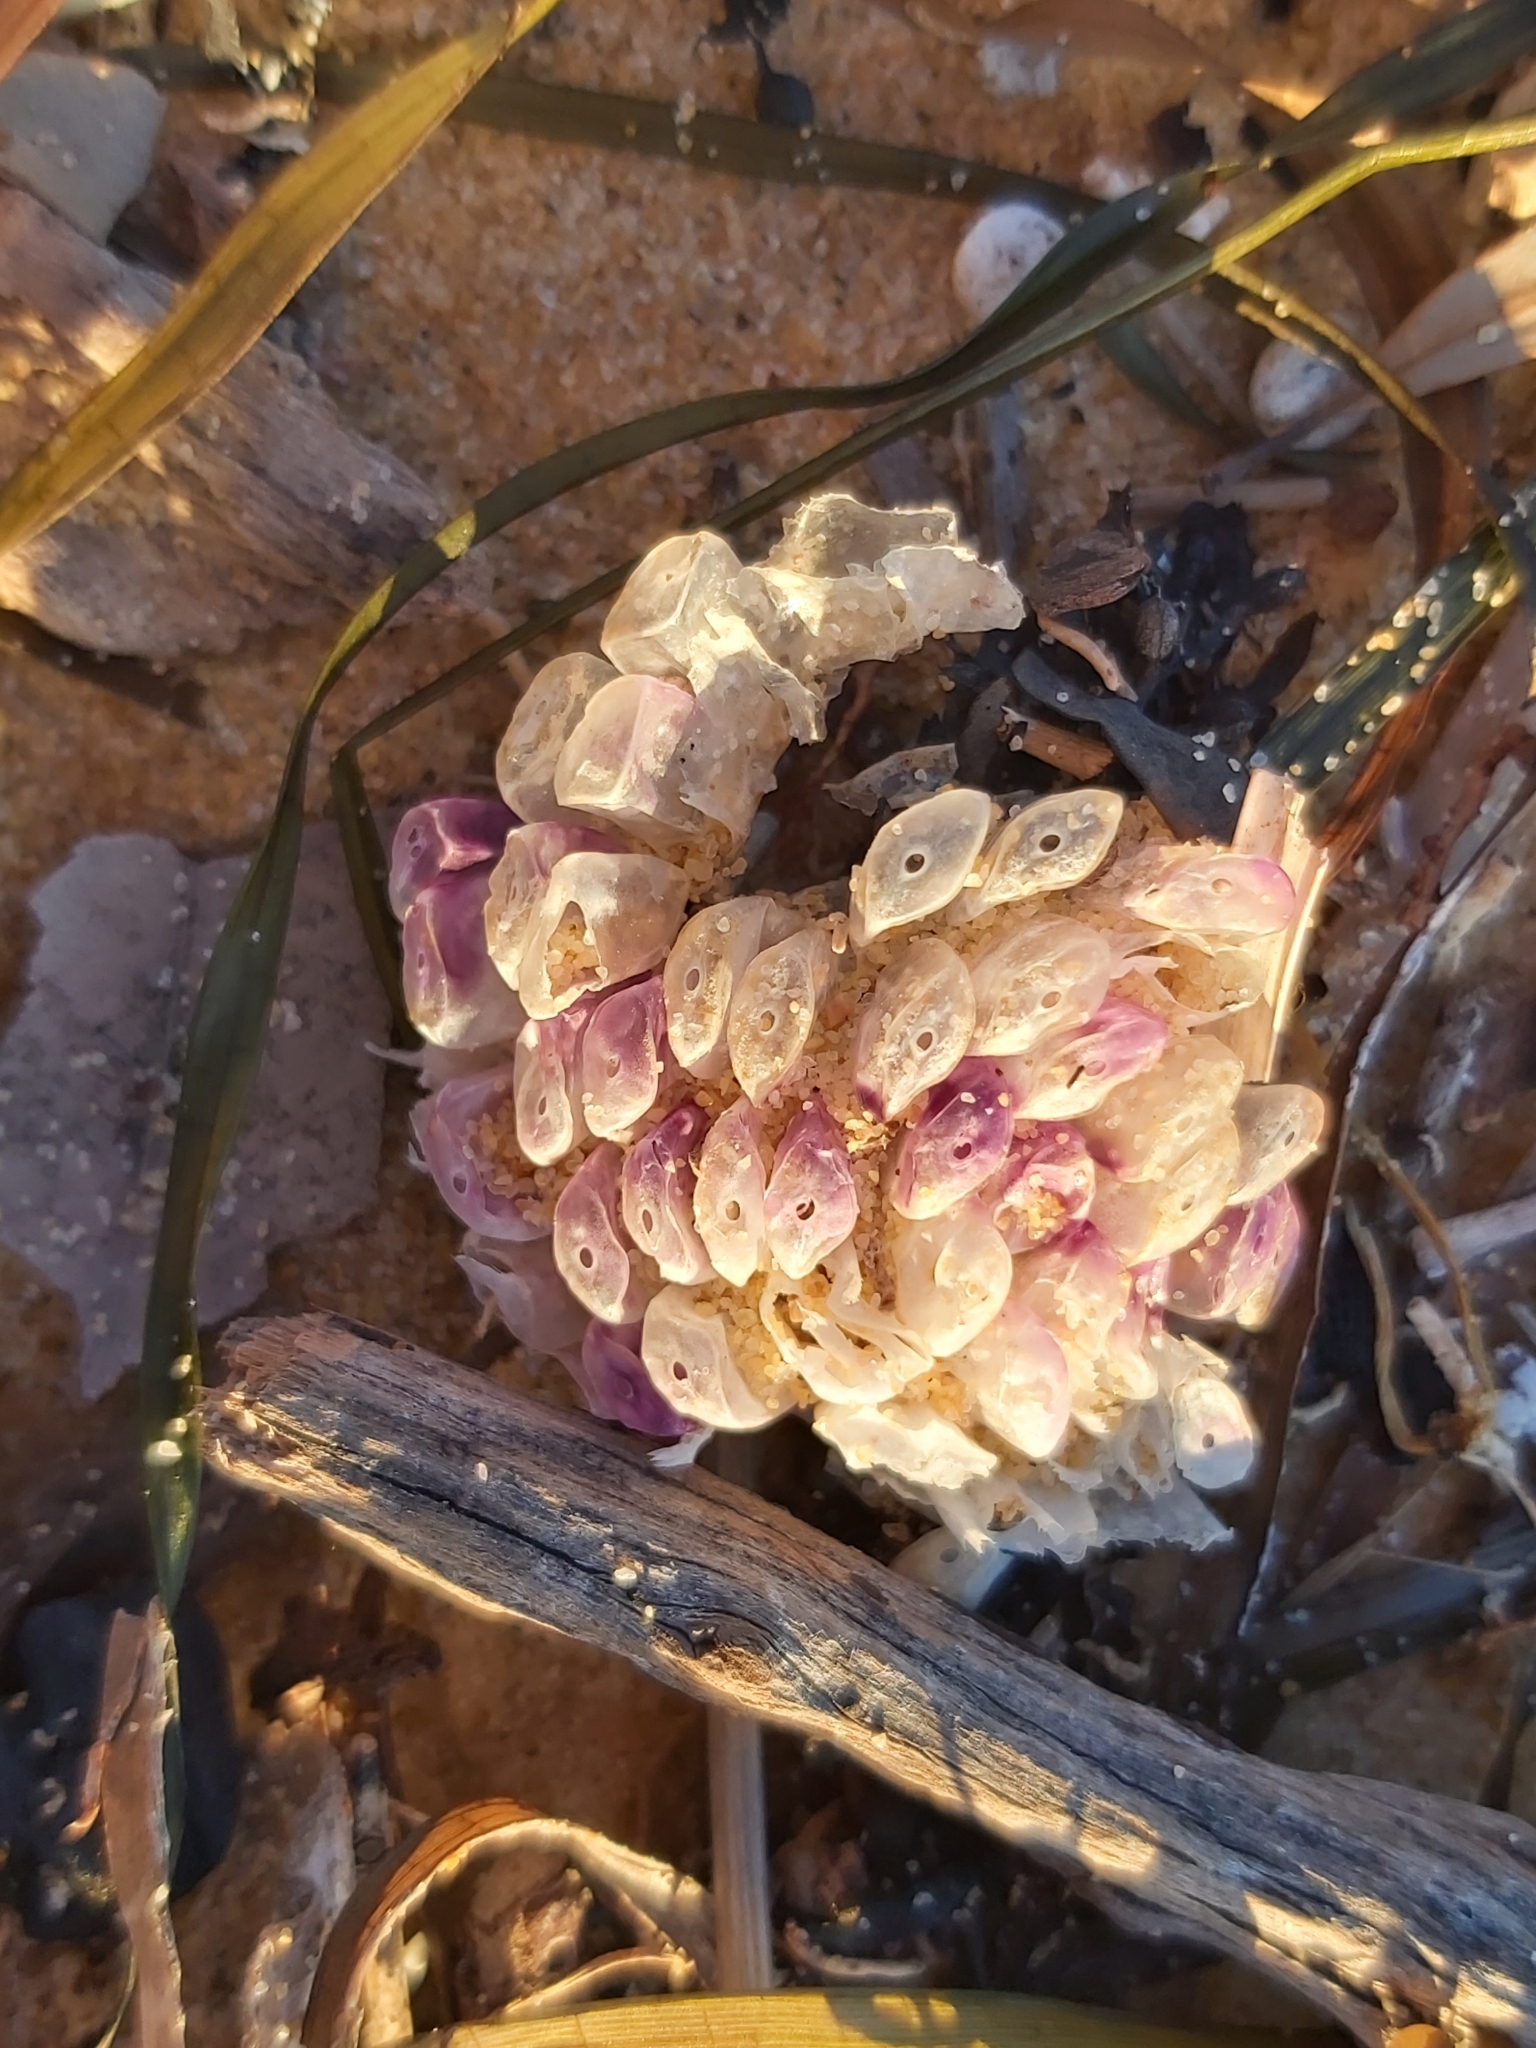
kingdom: Animalia
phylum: Mollusca
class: Gastropoda
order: Neogastropoda
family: Muricidae
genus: Dicathais
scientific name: Dicathais orbita
